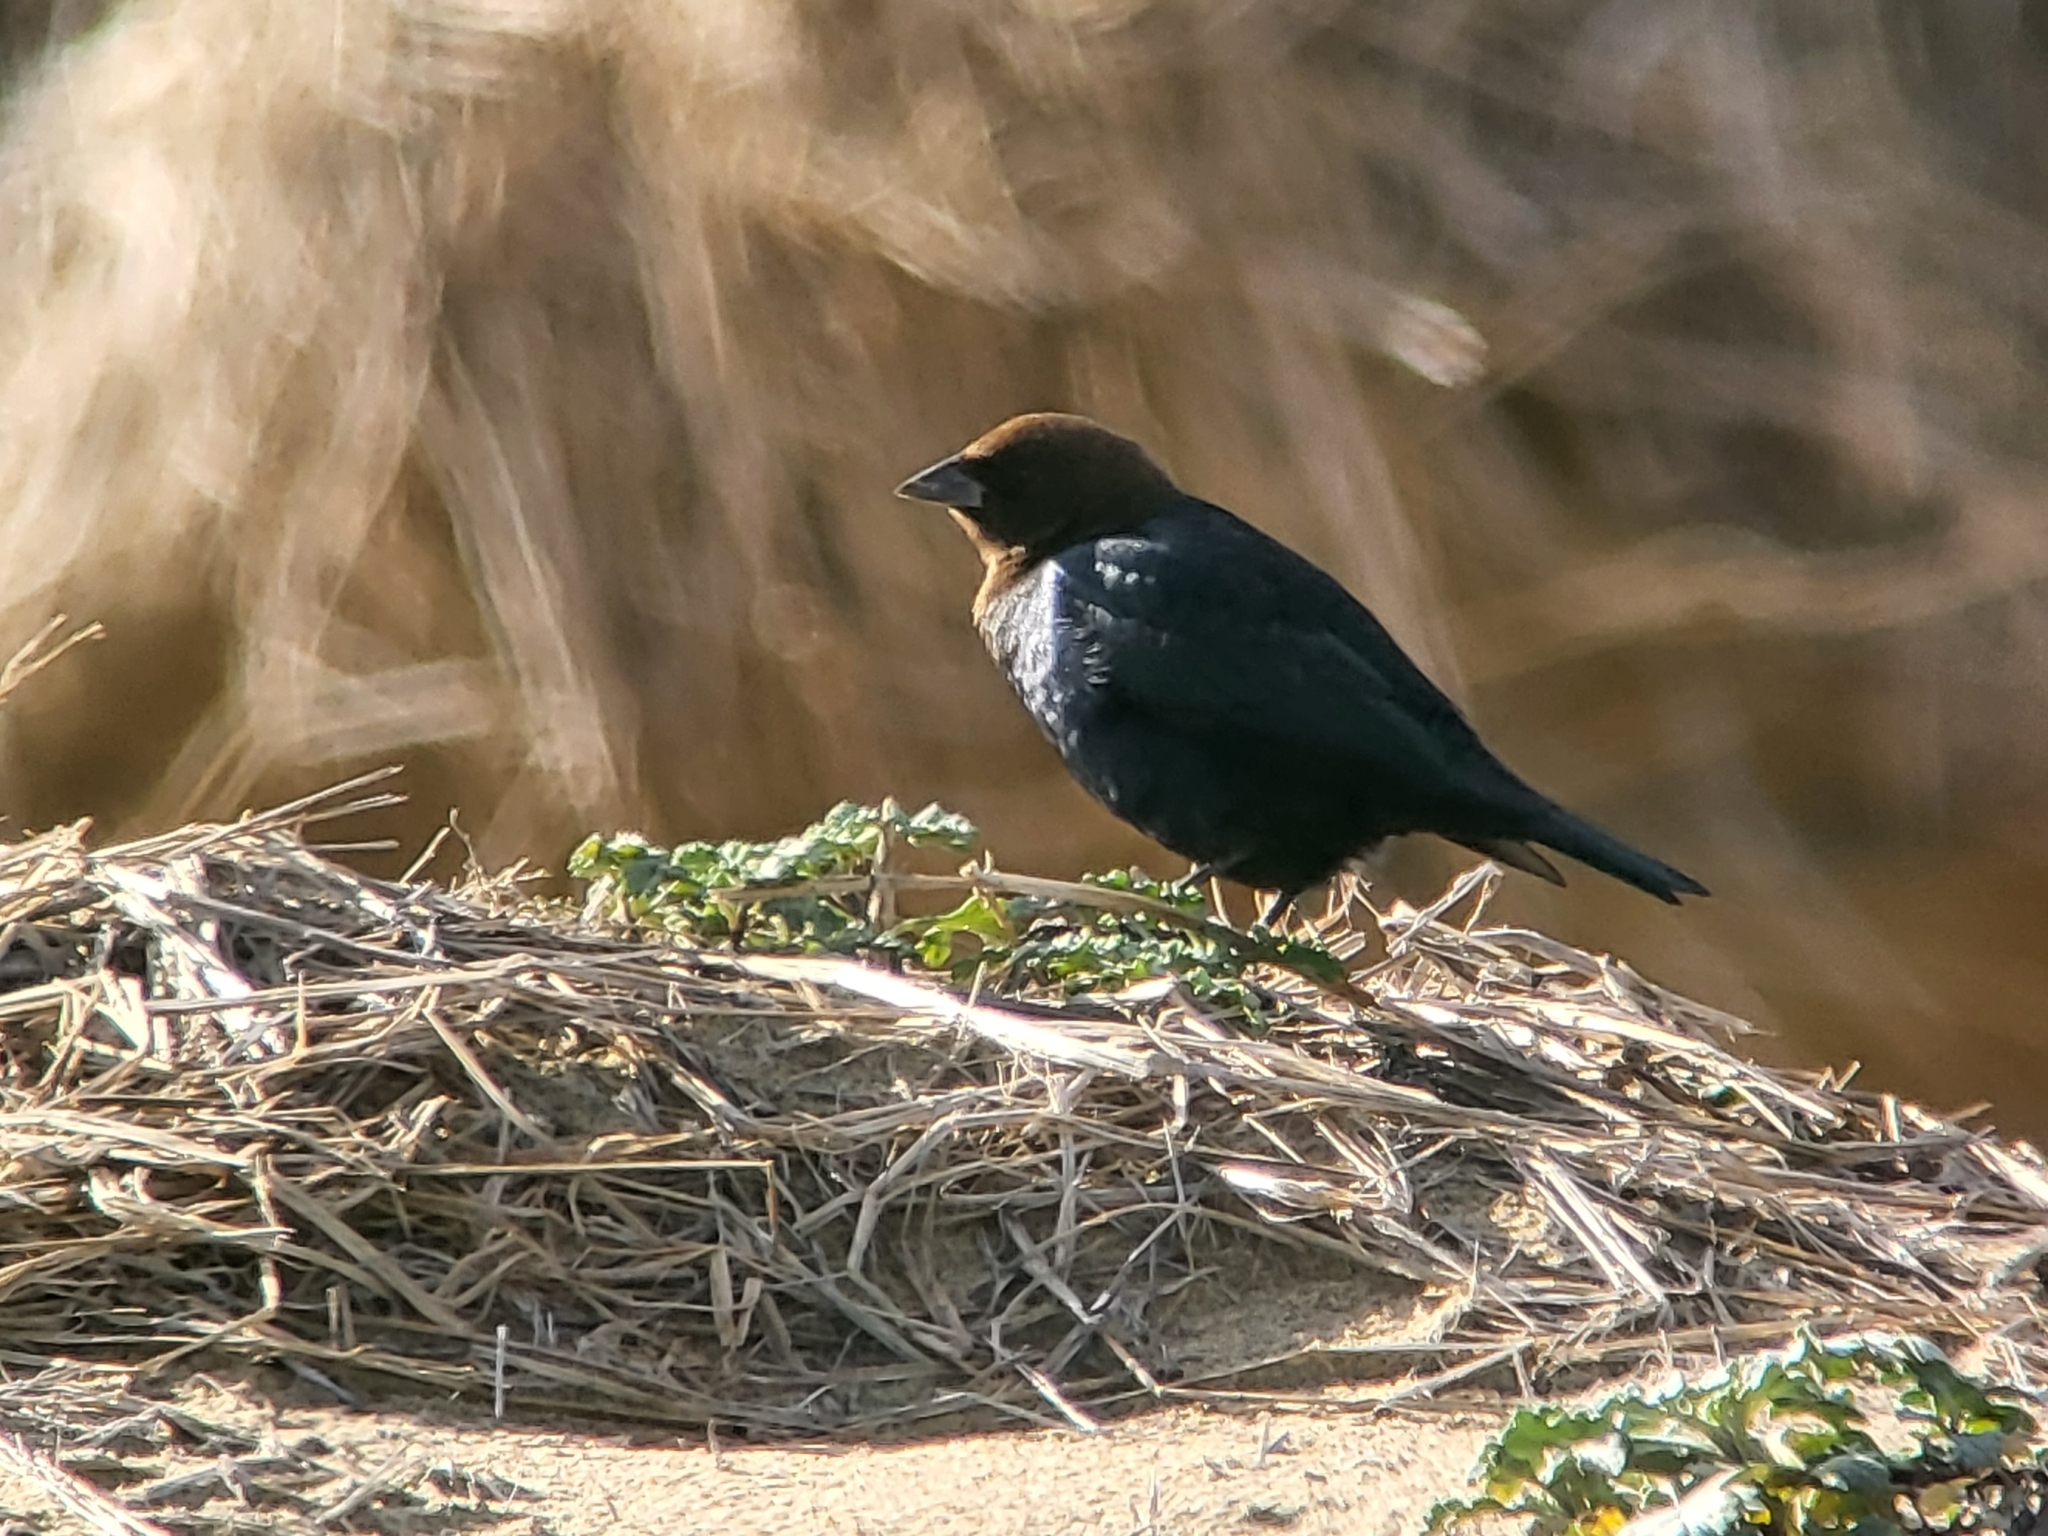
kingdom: Animalia
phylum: Chordata
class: Aves
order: Passeriformes
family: Icteridae
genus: Molothrus
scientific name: Molothrus ater
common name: Brown-headed cowbird
